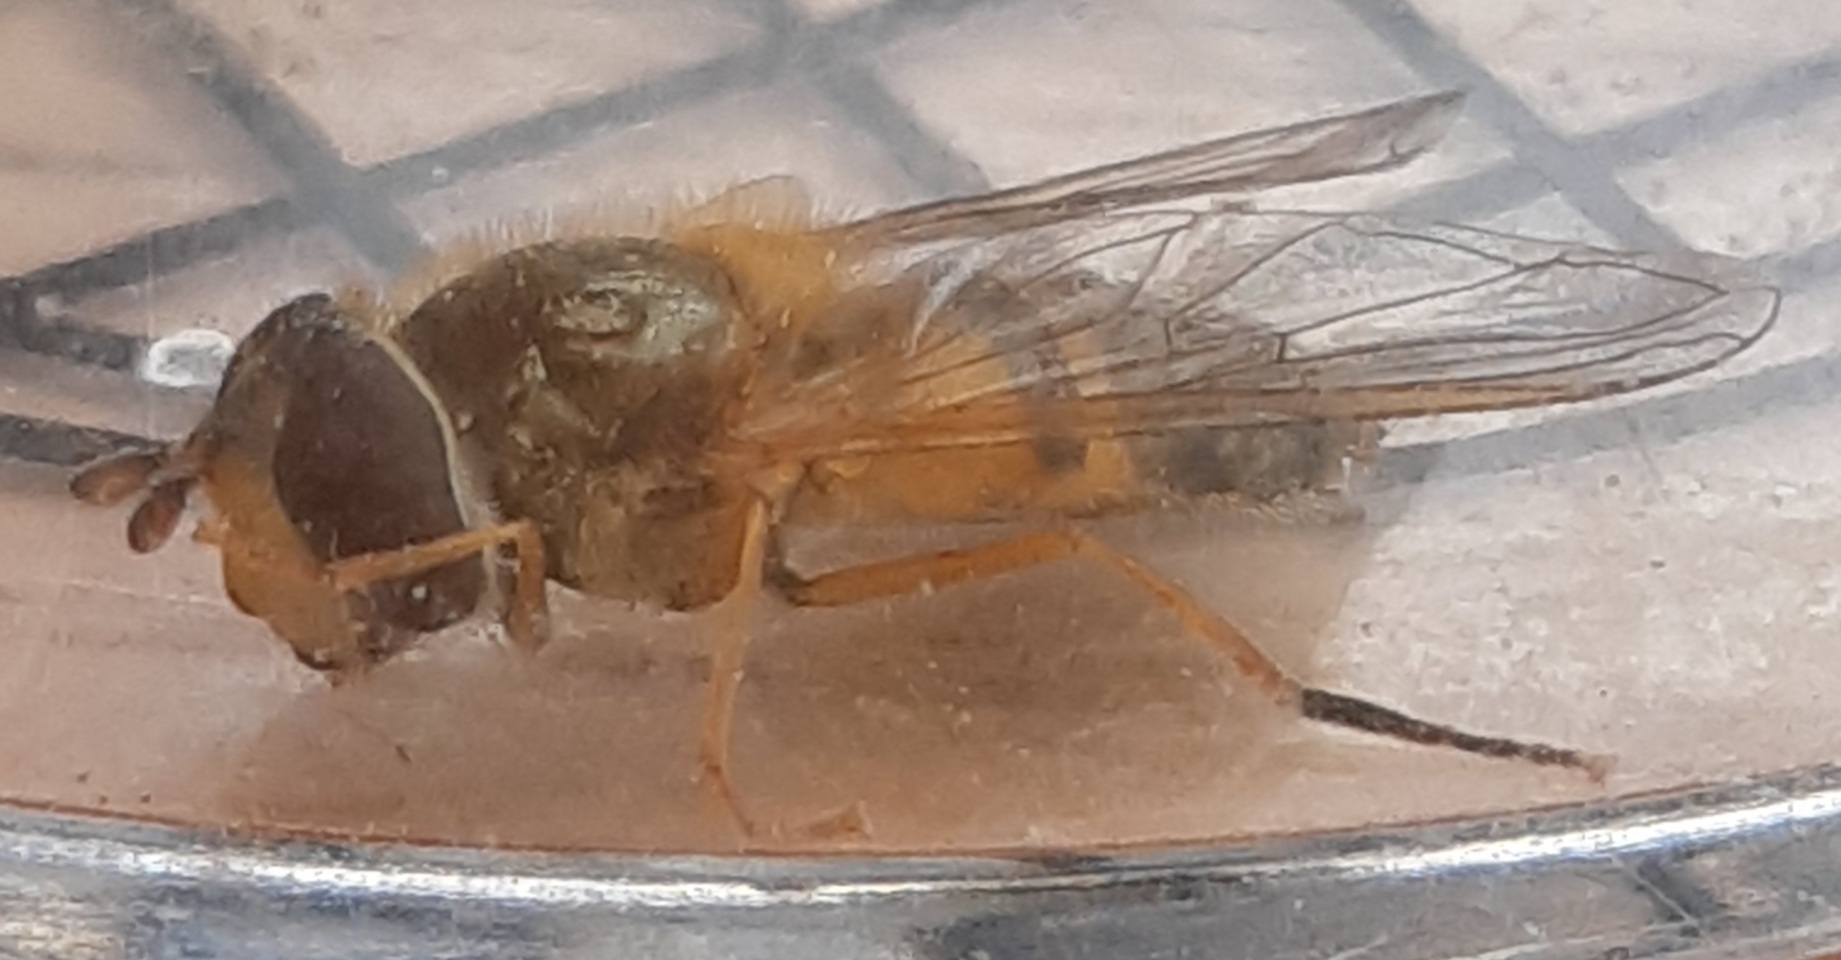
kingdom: Animalia
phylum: Arthropoda
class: Insecta
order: Diptera
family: Syrphidae
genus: Epistrophe
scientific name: Epistrophe eligans
